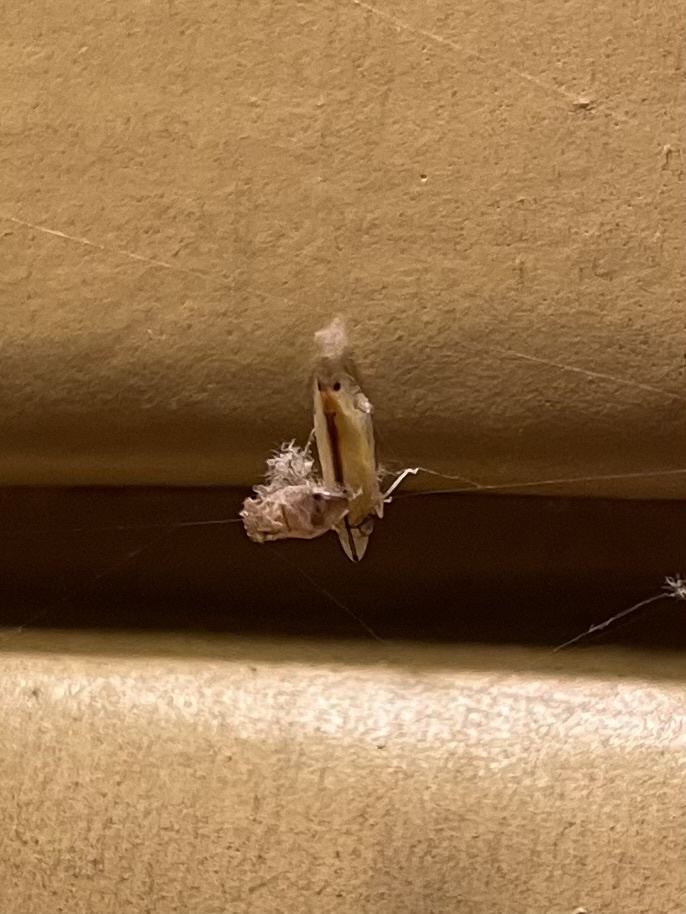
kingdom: Animalia
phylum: Arthropoda
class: Insecta
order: Hemiptera
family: Cicadellidae
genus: Sophonia
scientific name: Sophonia orientalis
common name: Two-spotted leafhopper
